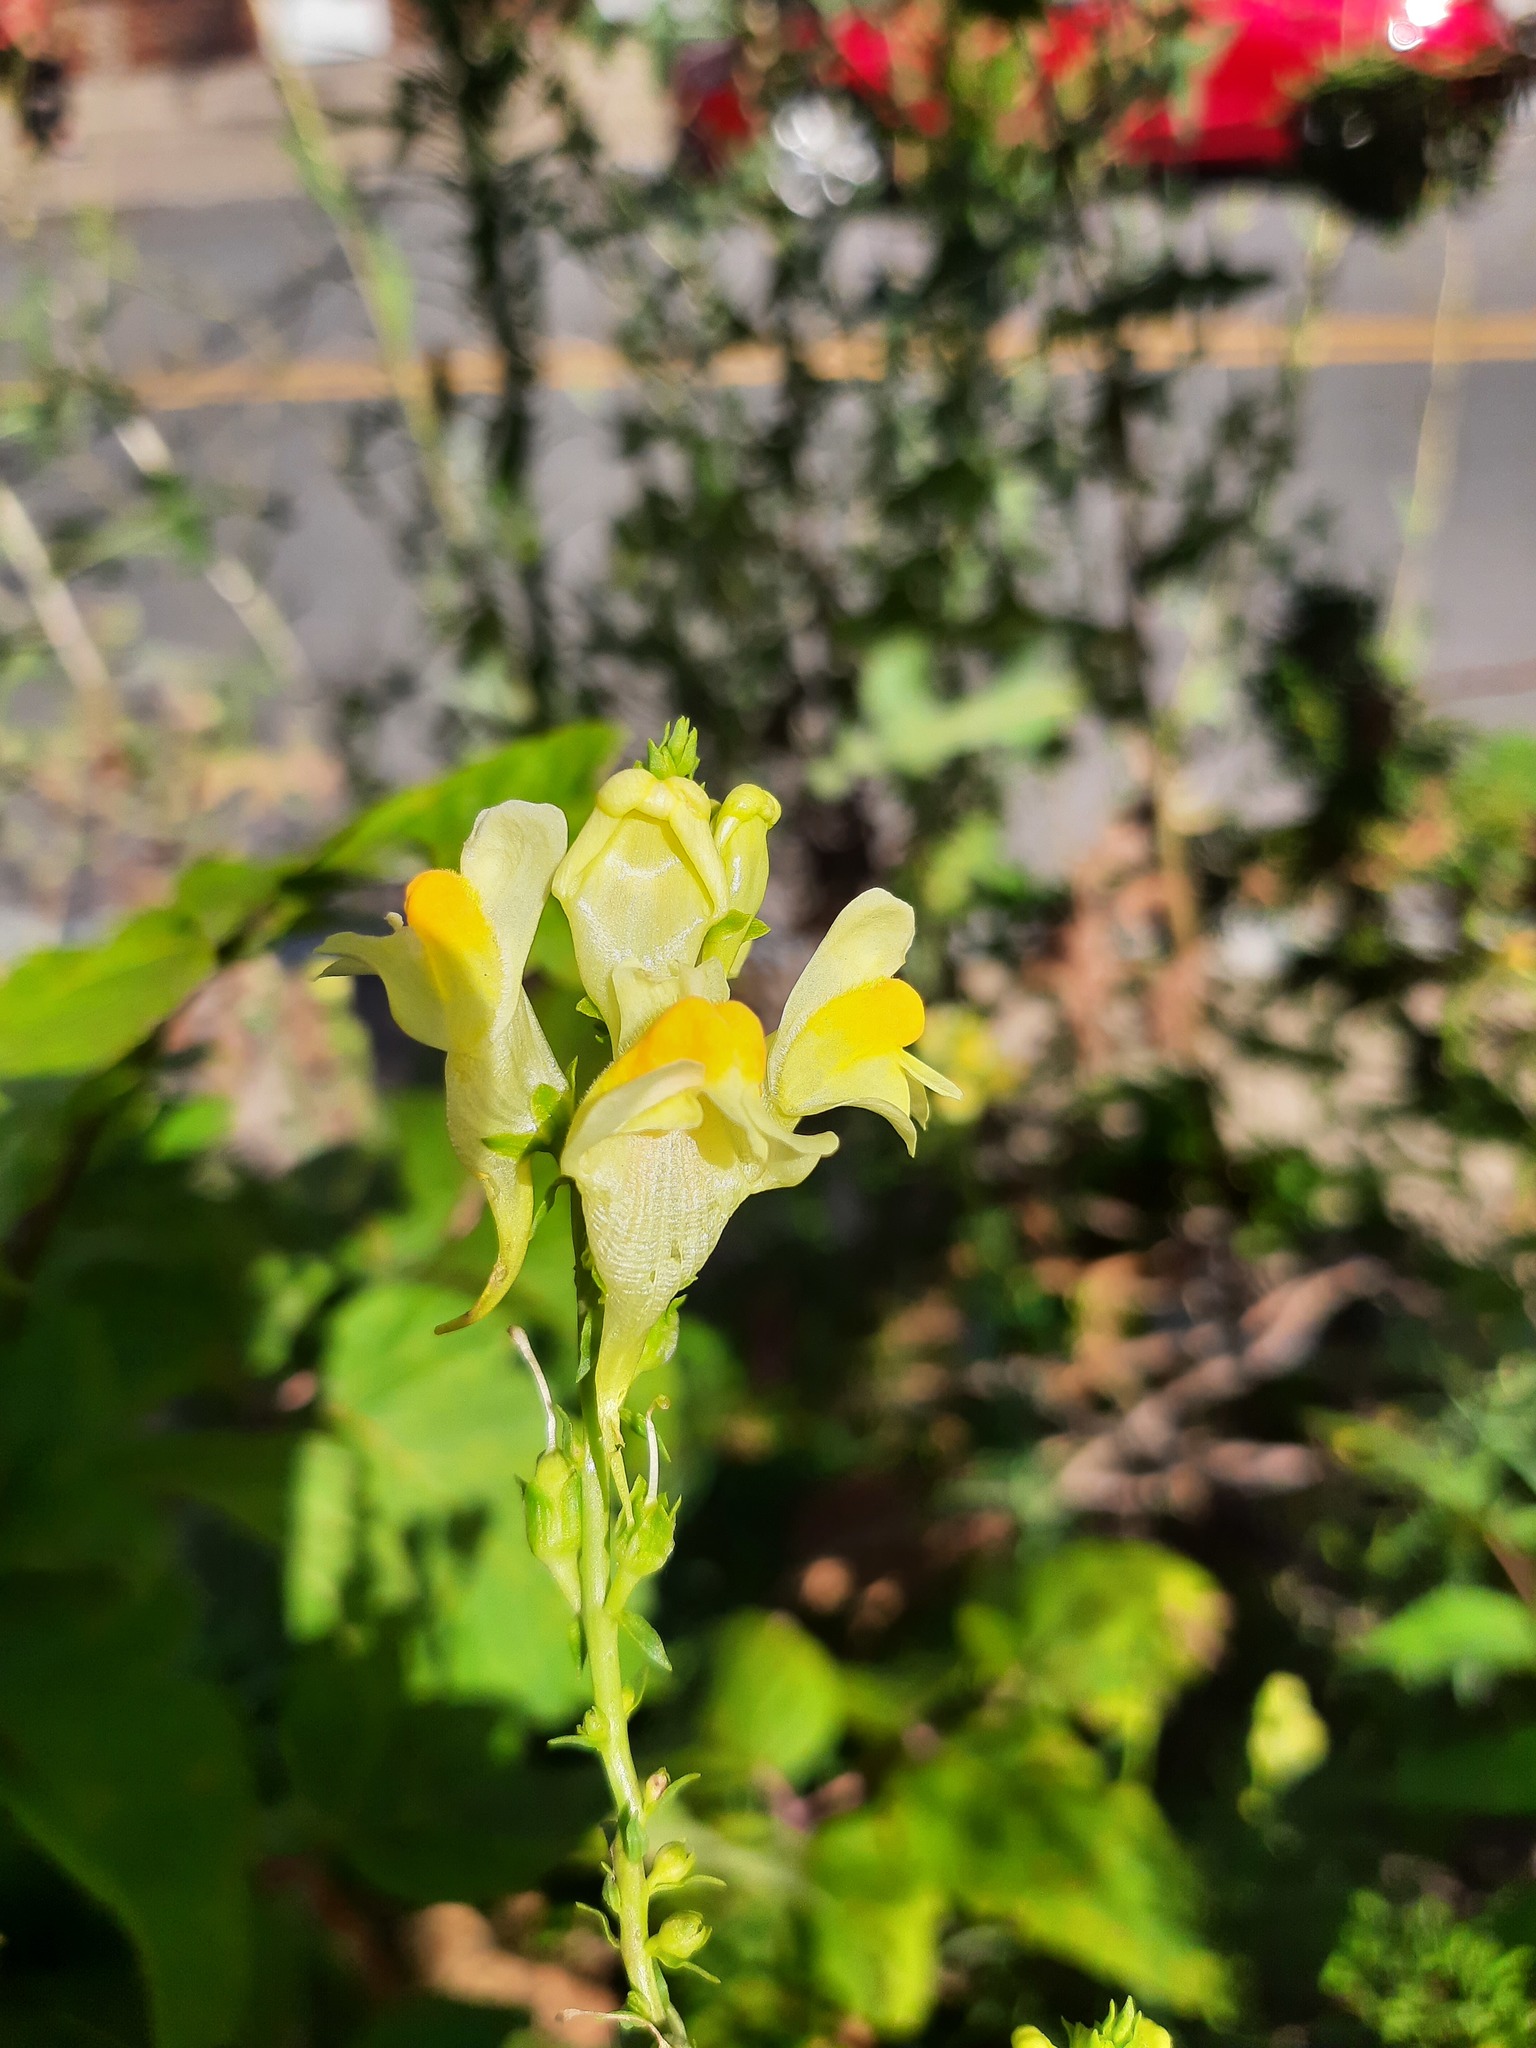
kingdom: Plantae
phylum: Tracheophyta
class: Magnoliopsida
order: Lamiales
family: Plantaginaceae
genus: Linaria
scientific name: Linaria vulgaris
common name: Butter and eggs
